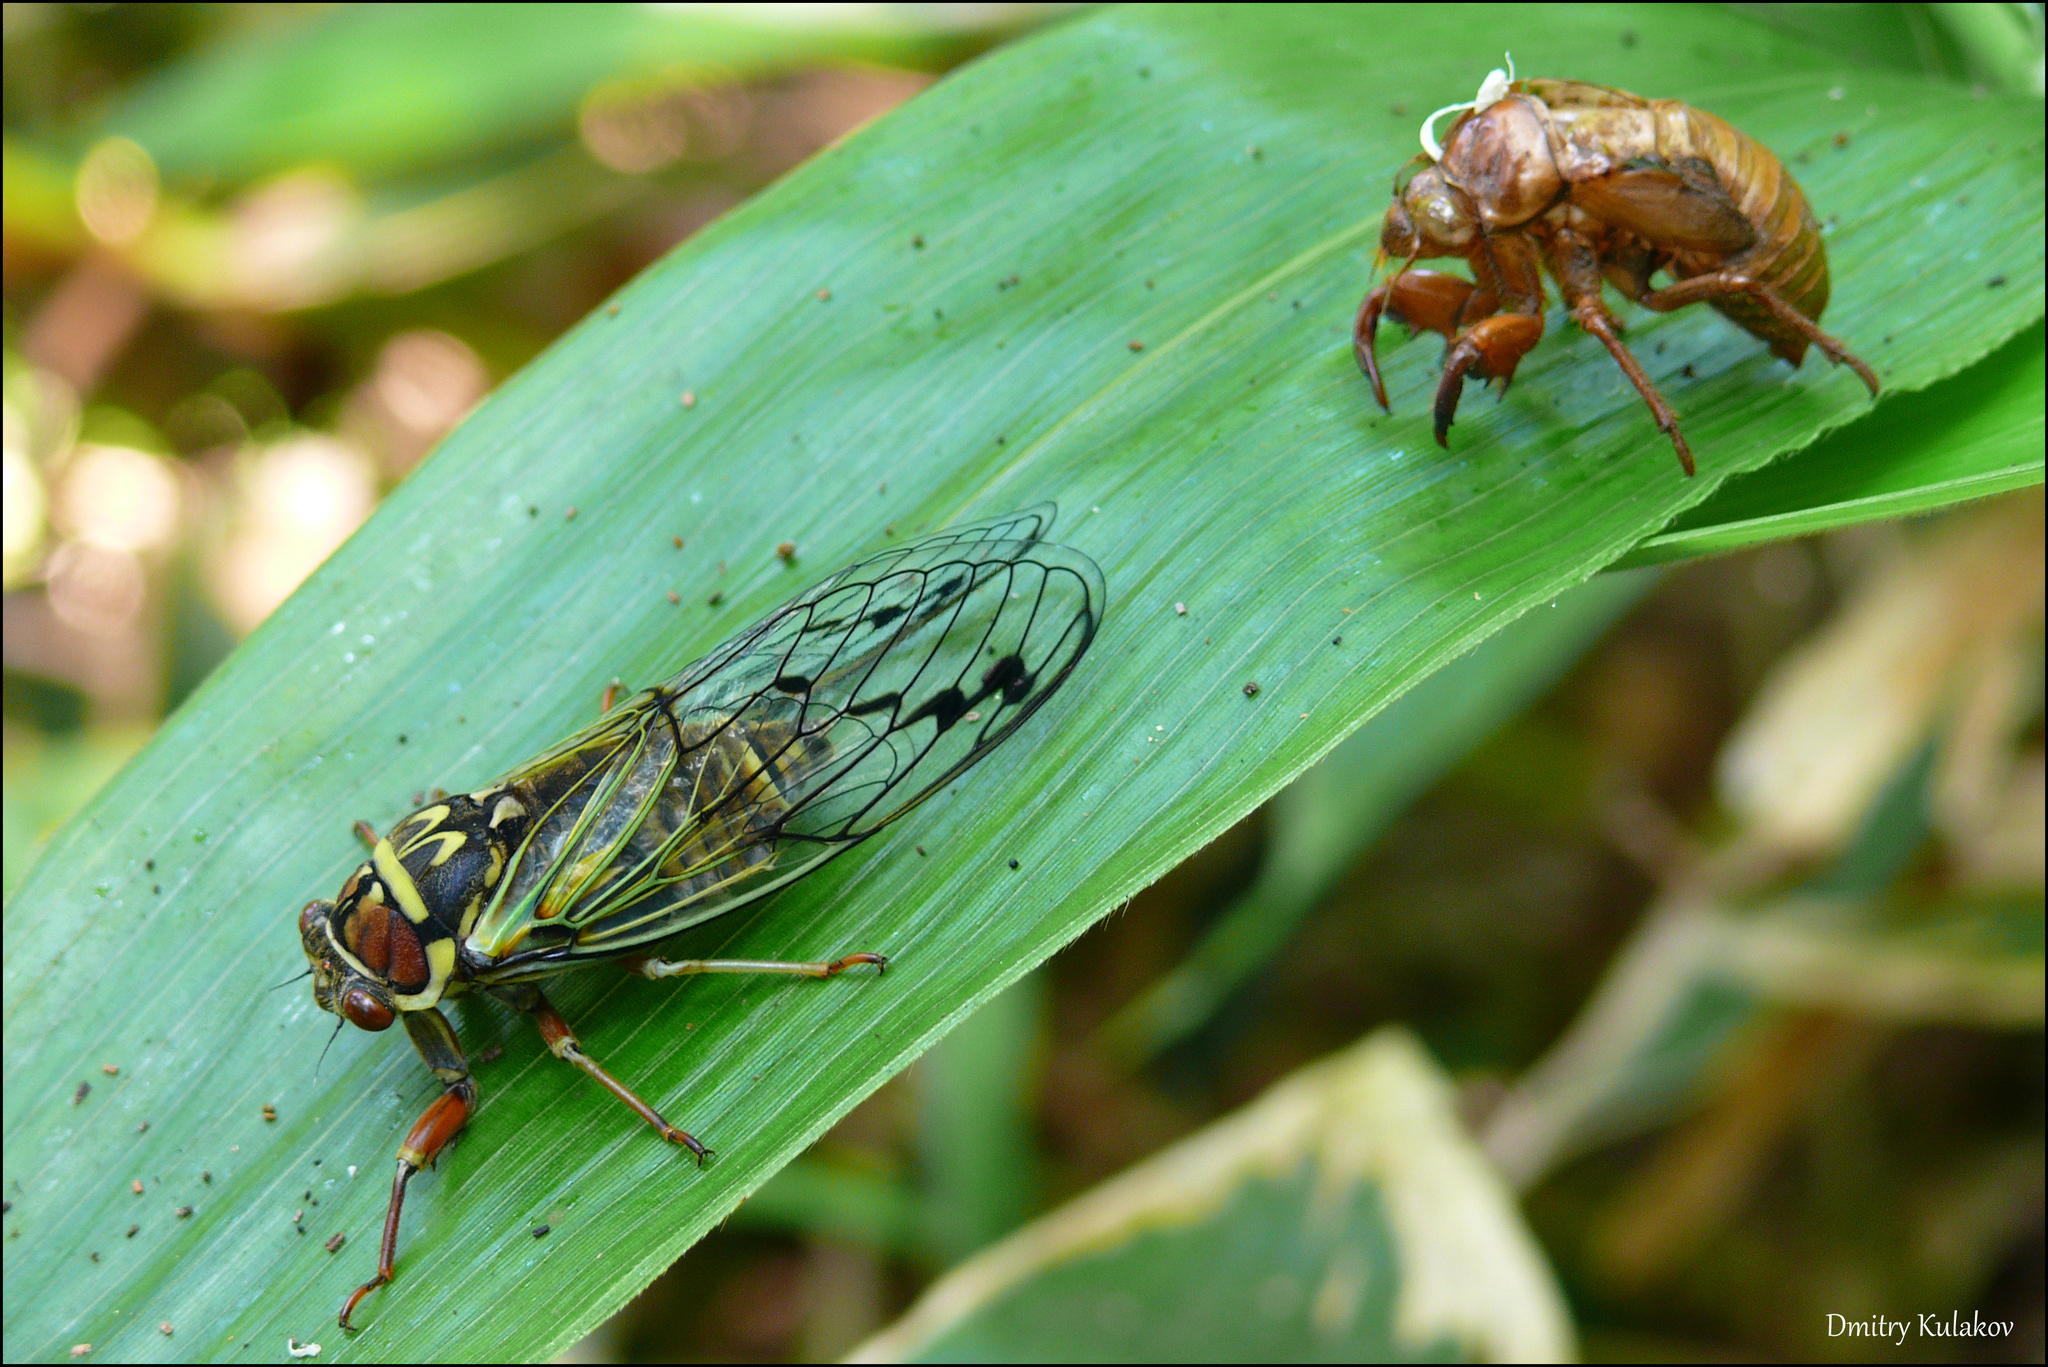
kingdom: Animalia
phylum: Arthropoda
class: Insecta
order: Hemiptera
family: Cicadidae
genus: Auritibicen
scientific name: Auritibicen bihamatus
